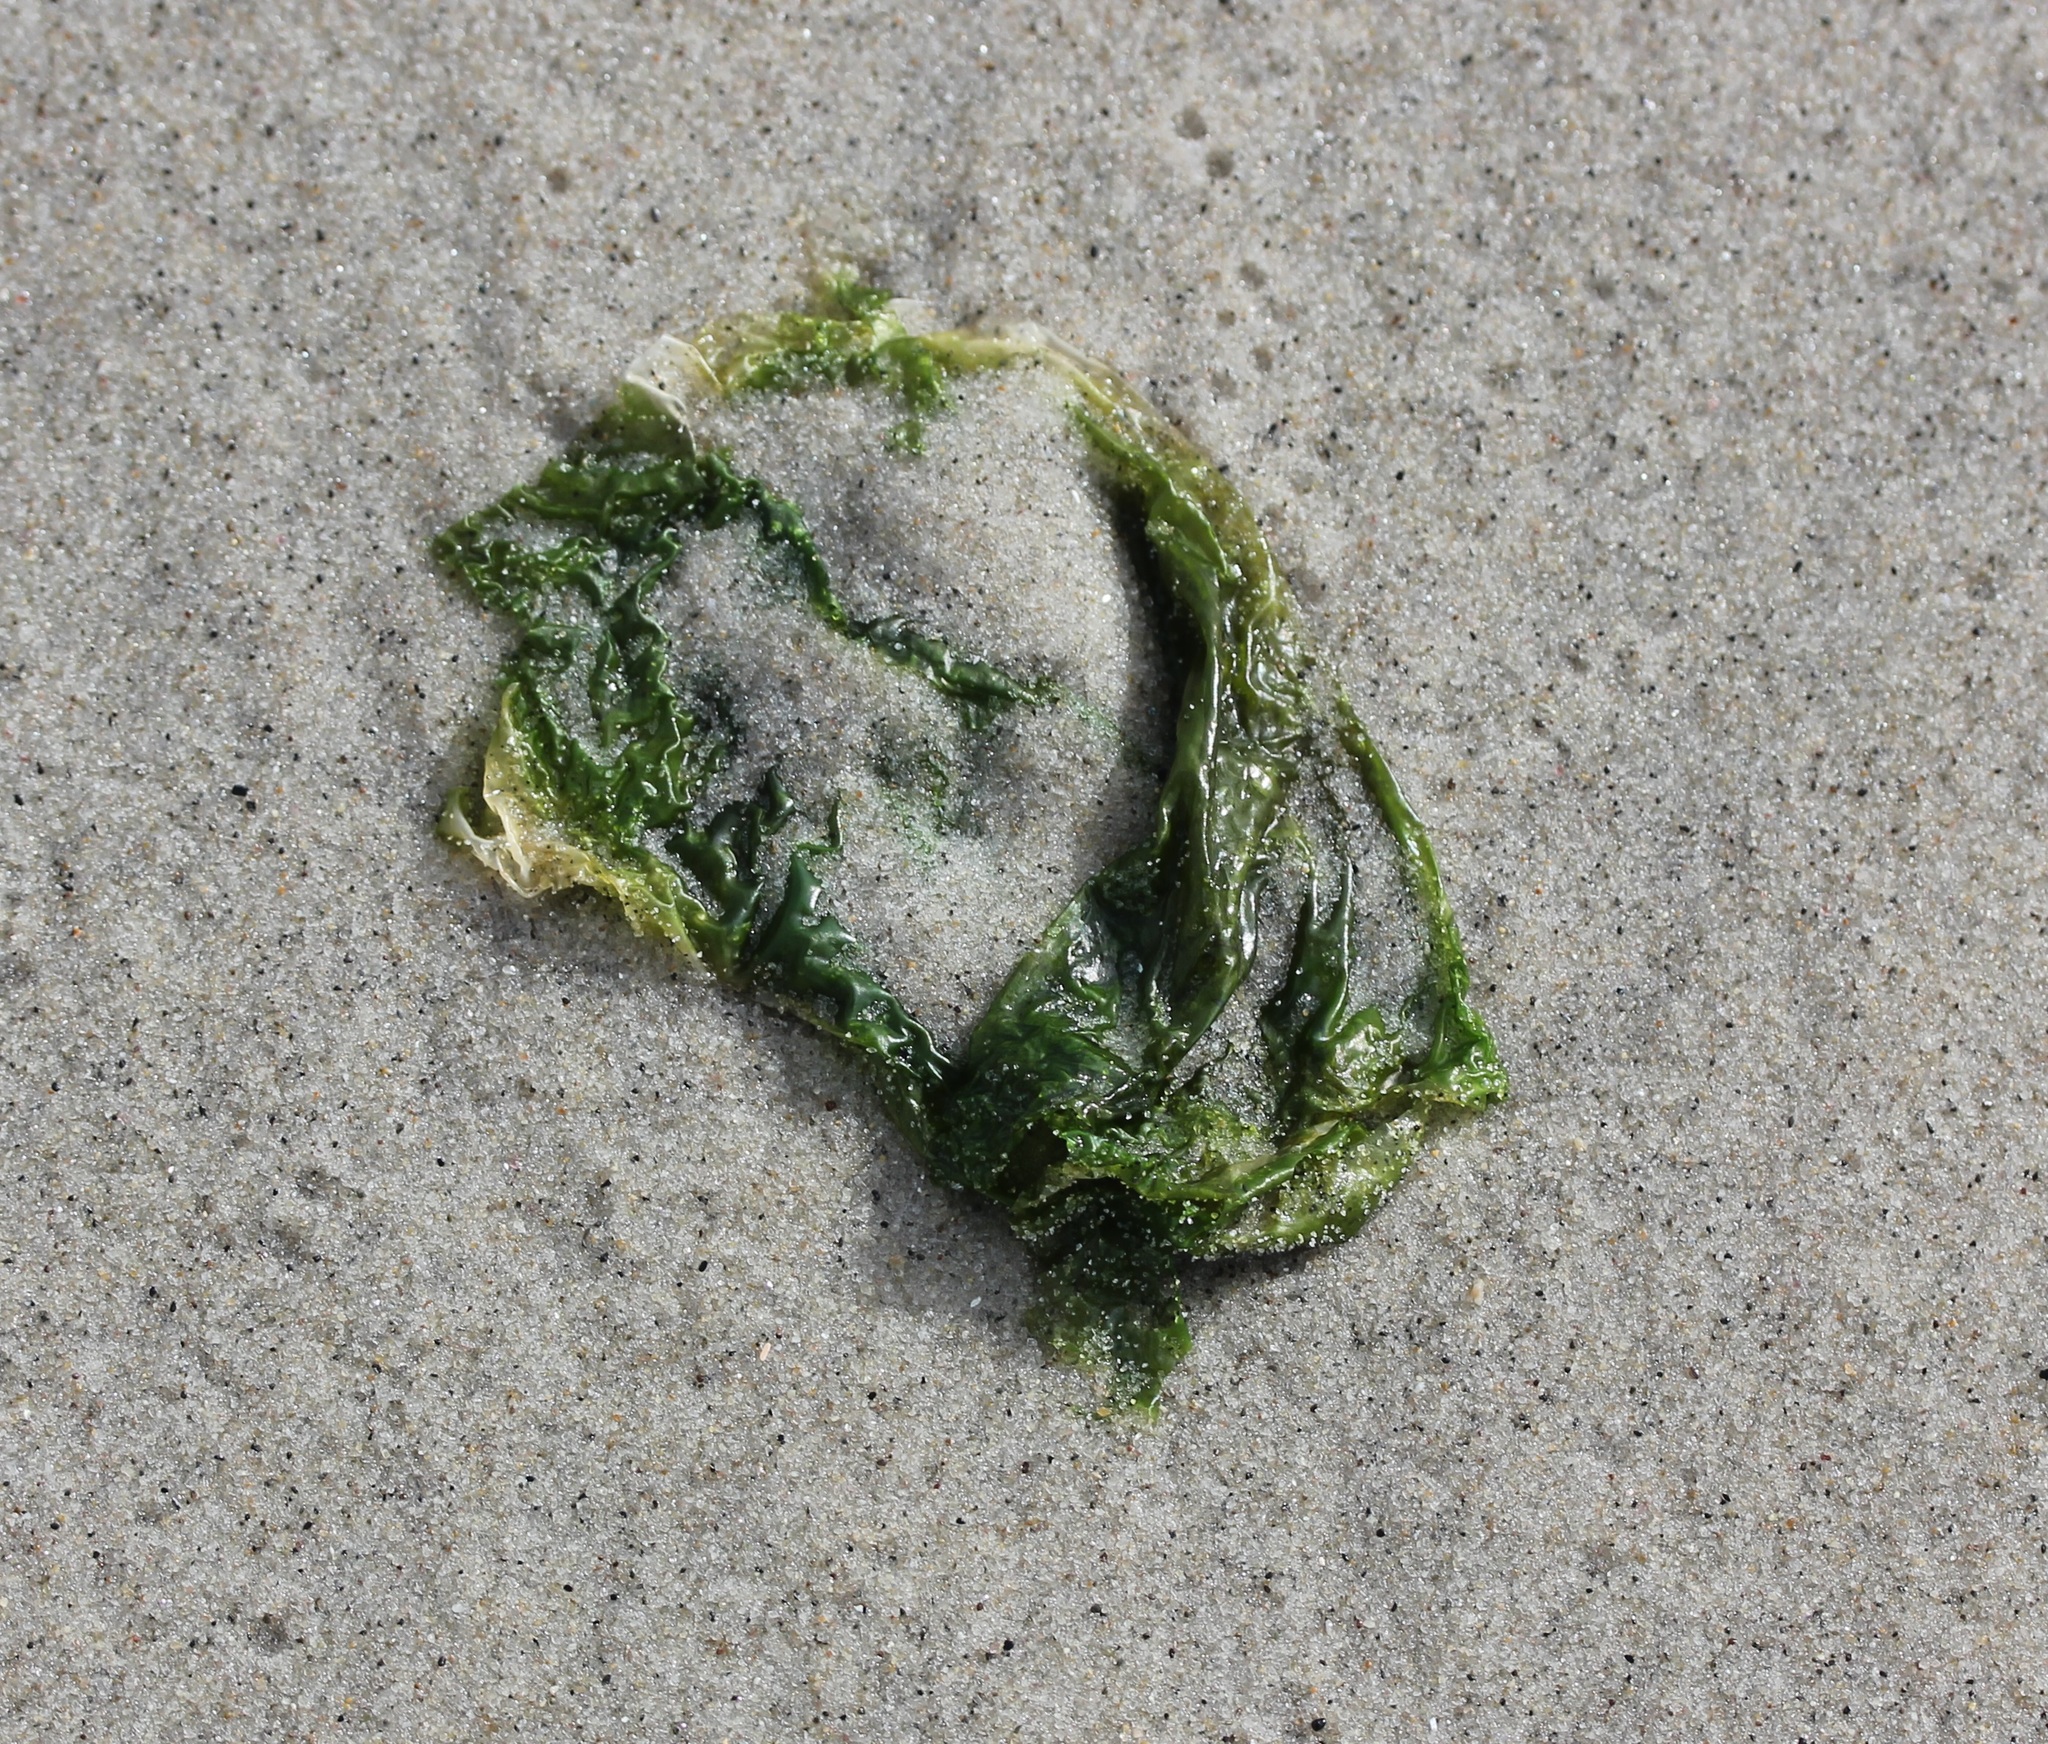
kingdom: Plantae
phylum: Chlorophyta
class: Ulvophyceae
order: Ulvales
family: Ulvaceae
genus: Ulva
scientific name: Ulva lactuca
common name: Sea lettuce
